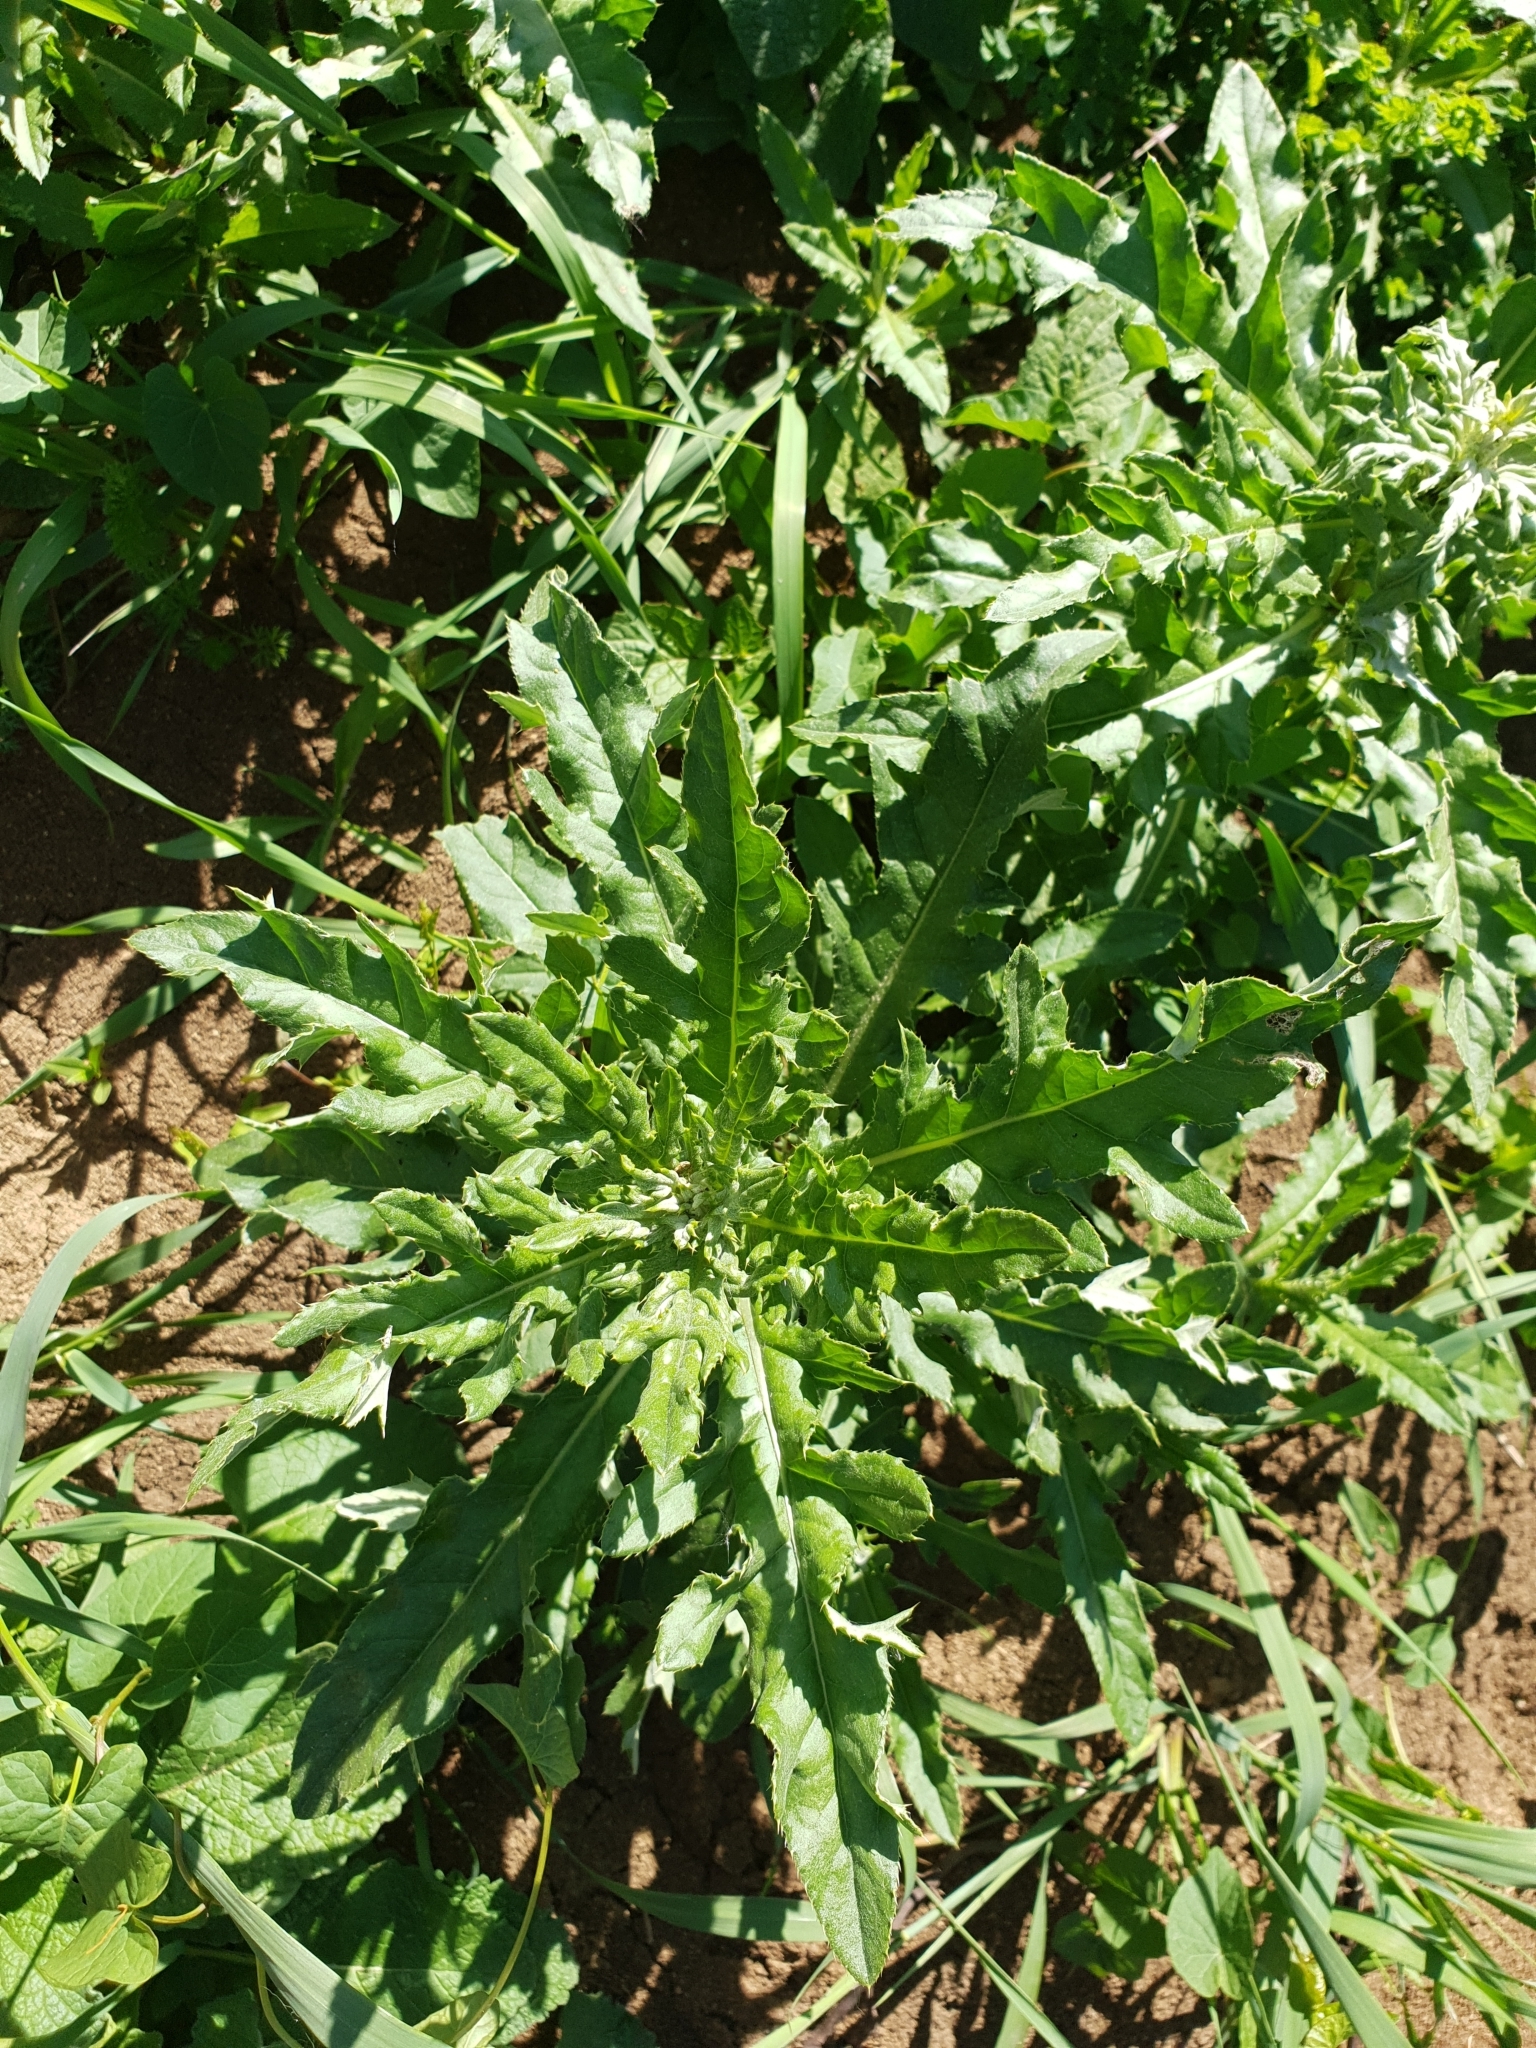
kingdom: Plantae
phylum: Tracheophyta
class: Magnoliopsida
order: Asterales
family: Asteraceae
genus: Cirsium
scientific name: Cirsium arvense
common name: Creeping thistle
